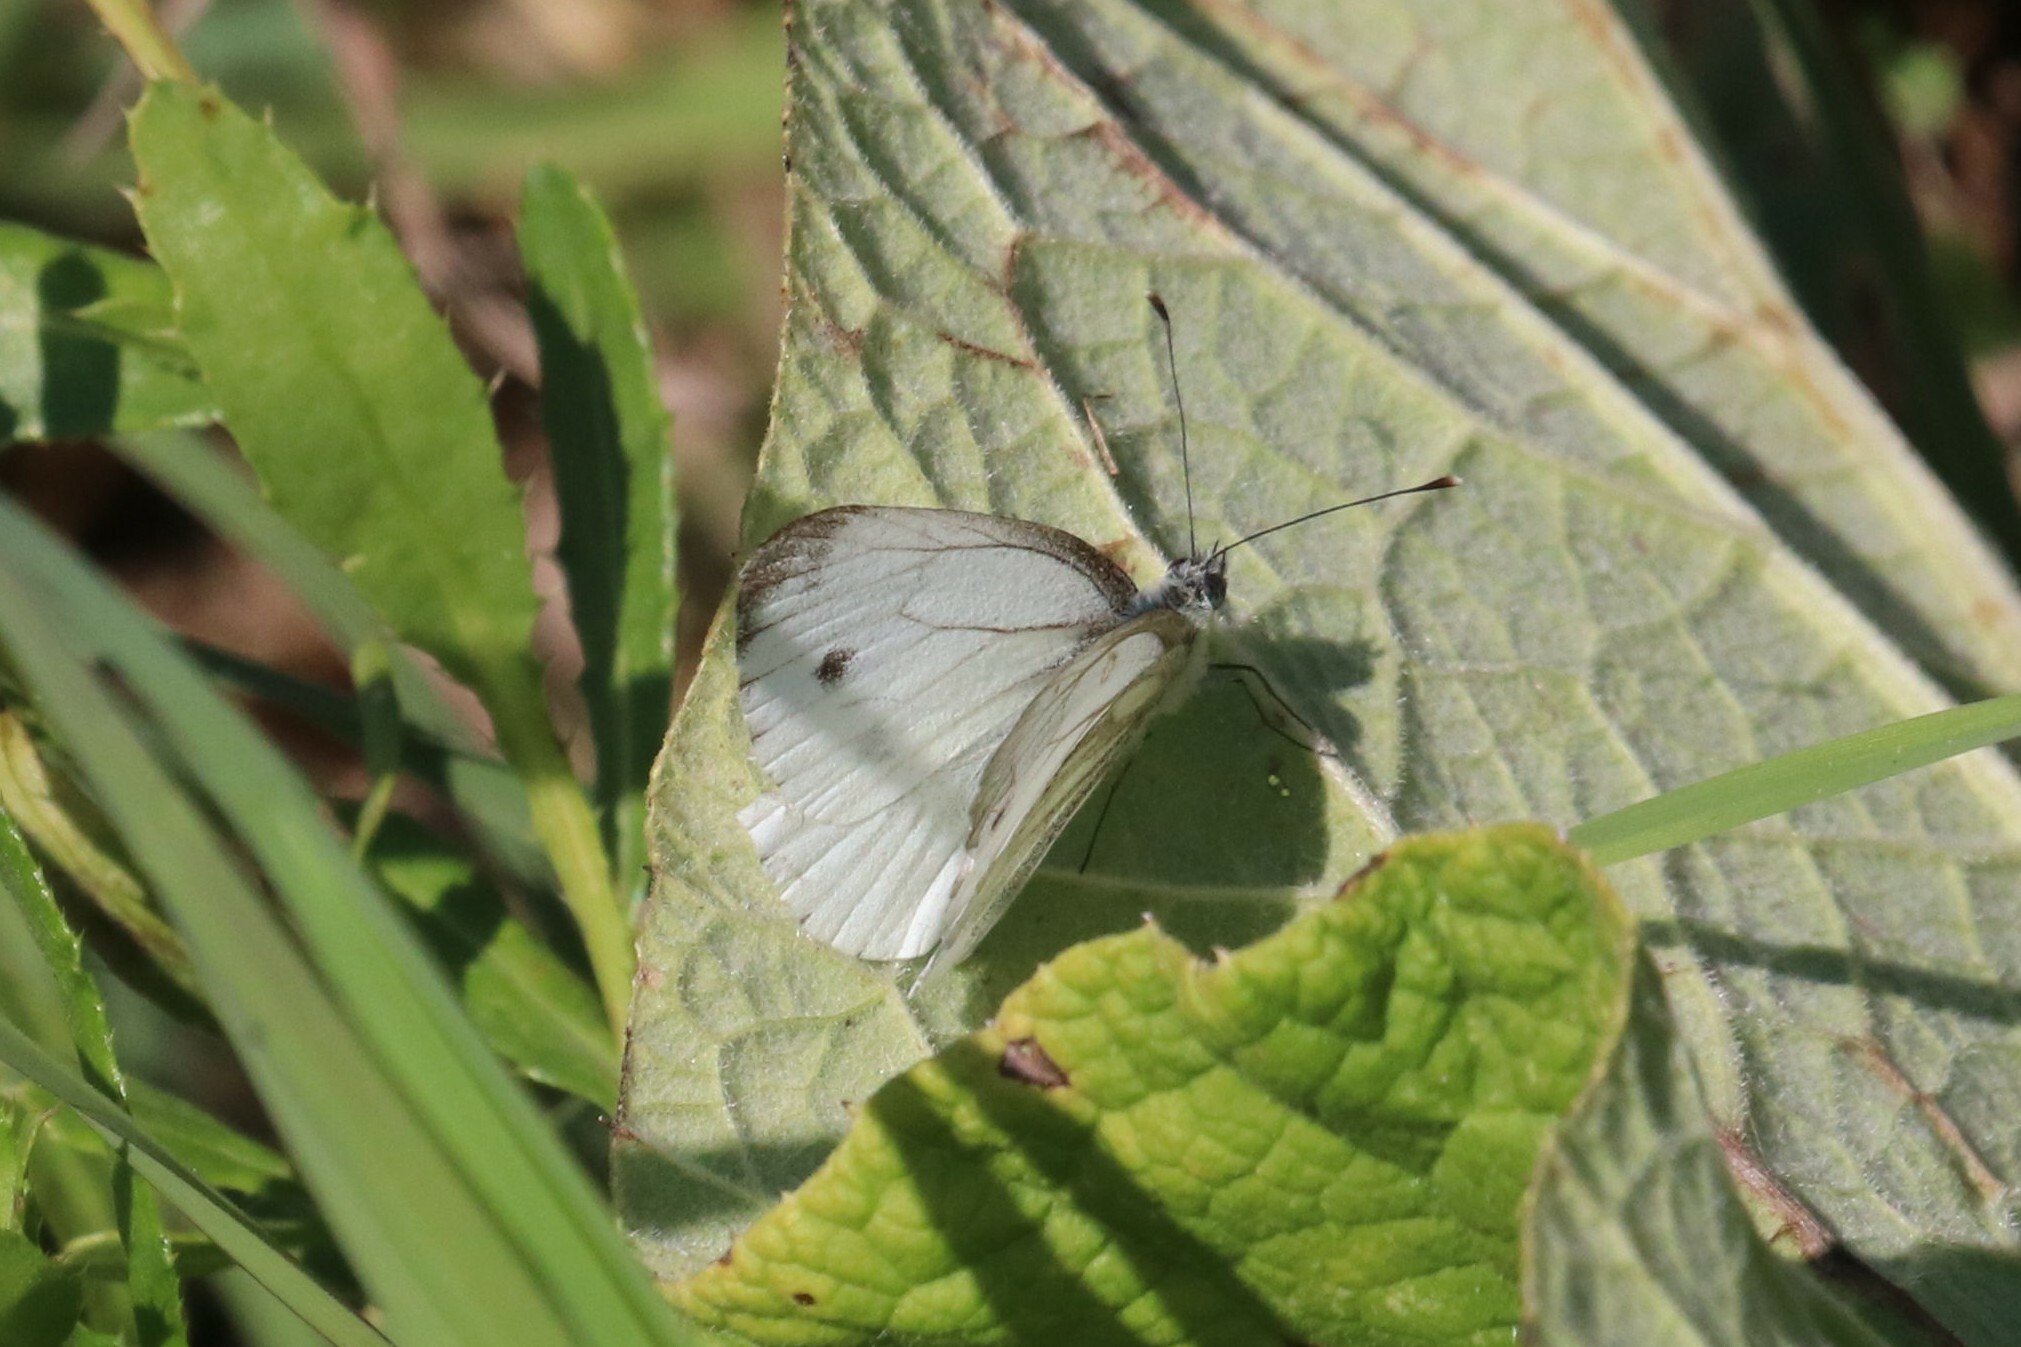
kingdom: Animalia
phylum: Arthropoda
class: Insecta
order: Lepidoptera
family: Pieridae
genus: Pieris
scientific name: Pieris napi
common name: Green-veined white
